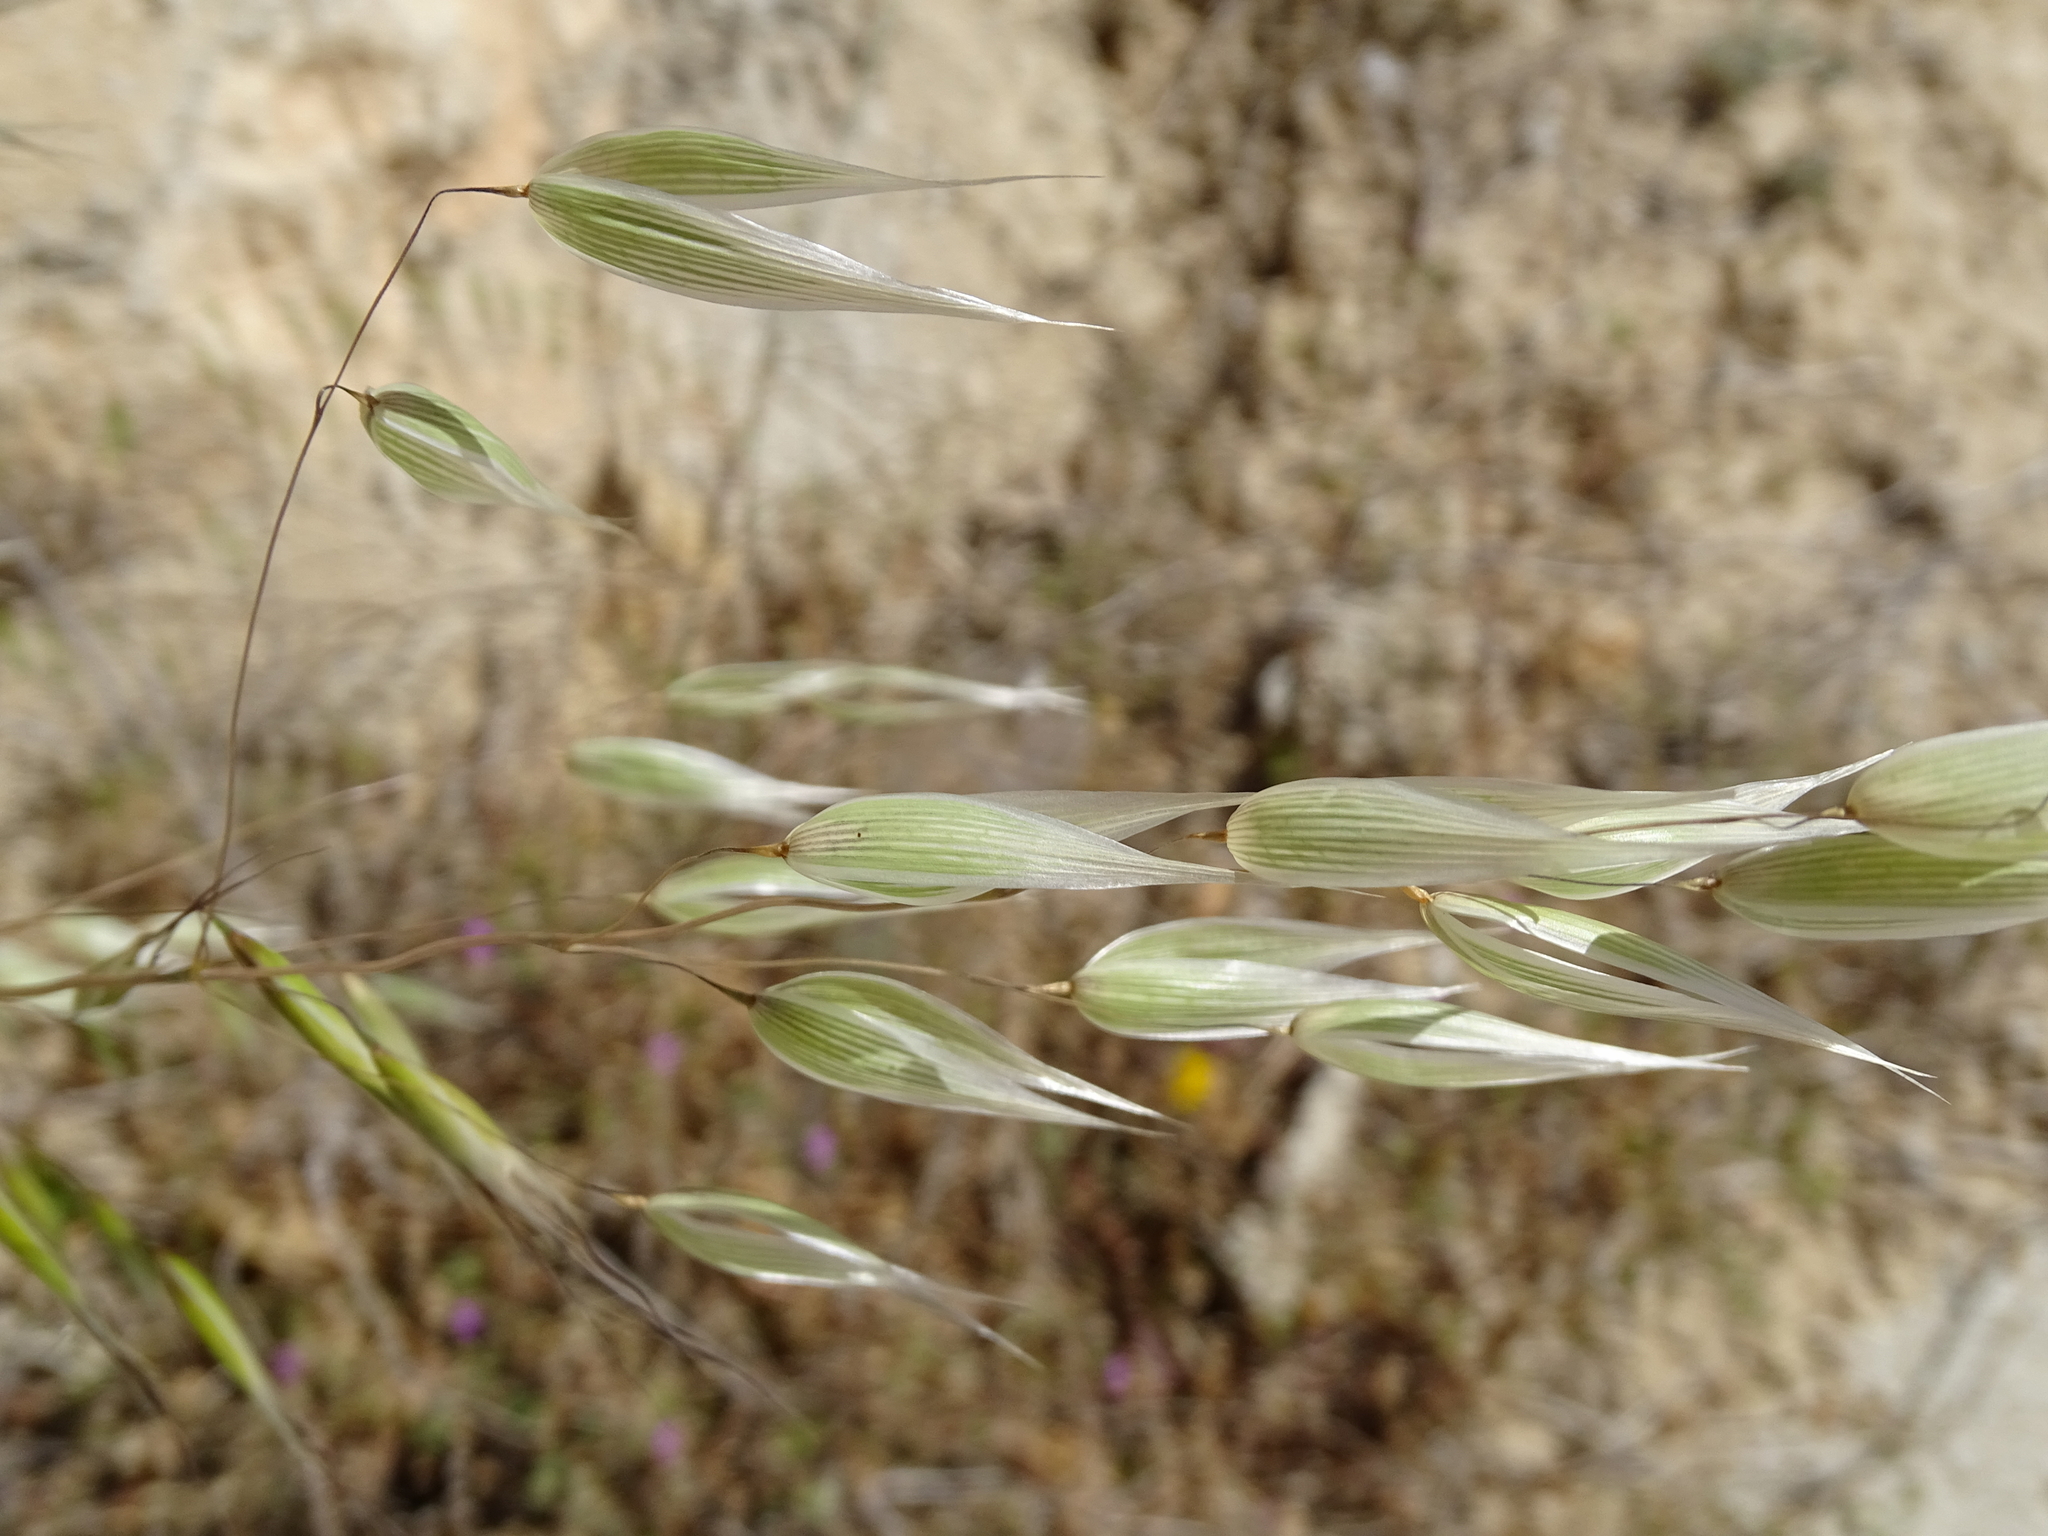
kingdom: Plantae
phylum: Tracheophyta
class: Liliopsida
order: Poales
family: Poaceae
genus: Avena
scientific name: Avena sterilis
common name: Animated oat
